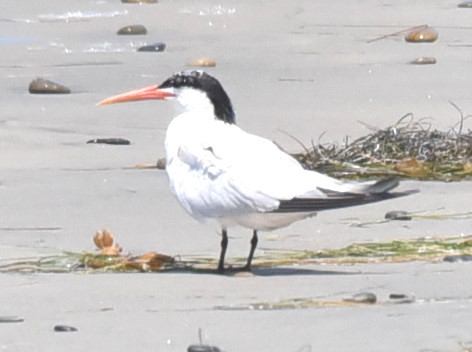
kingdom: Animalia
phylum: Chordata
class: Aves
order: Charadriiformes
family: Laridae
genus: Thalasseus
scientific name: Thalasseus elegans
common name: Elegant tern
